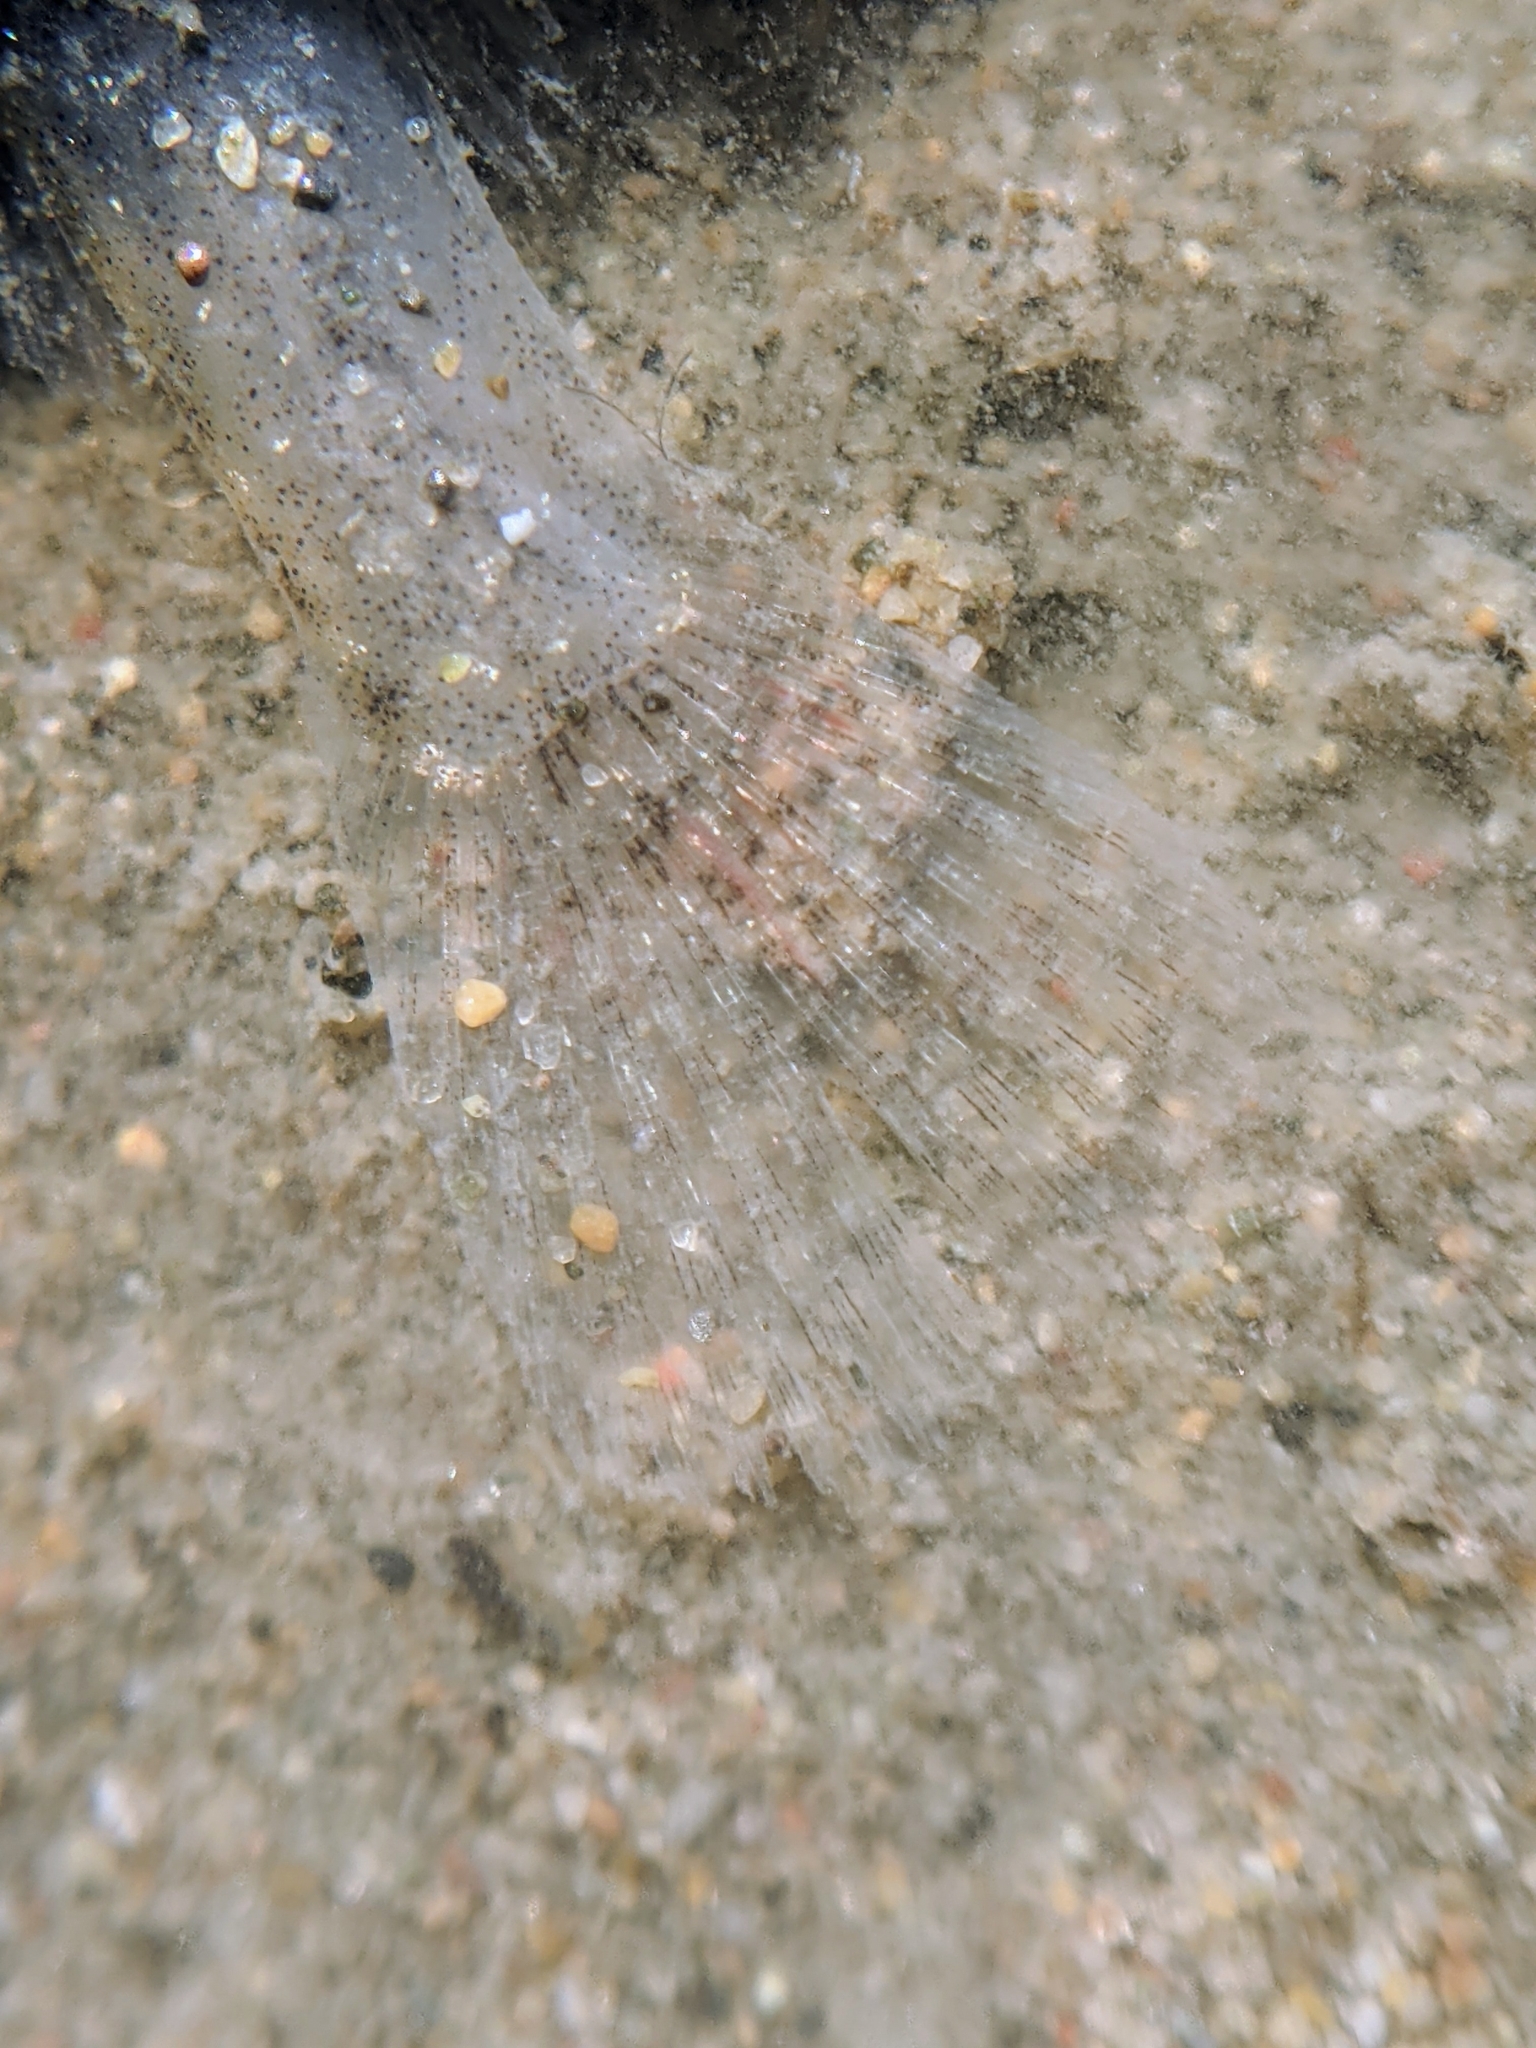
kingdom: Animalia
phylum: Chordata
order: Perciformes
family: Gobiidae
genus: Clevelandia
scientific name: Clevelandia ios
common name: Arrow goby
